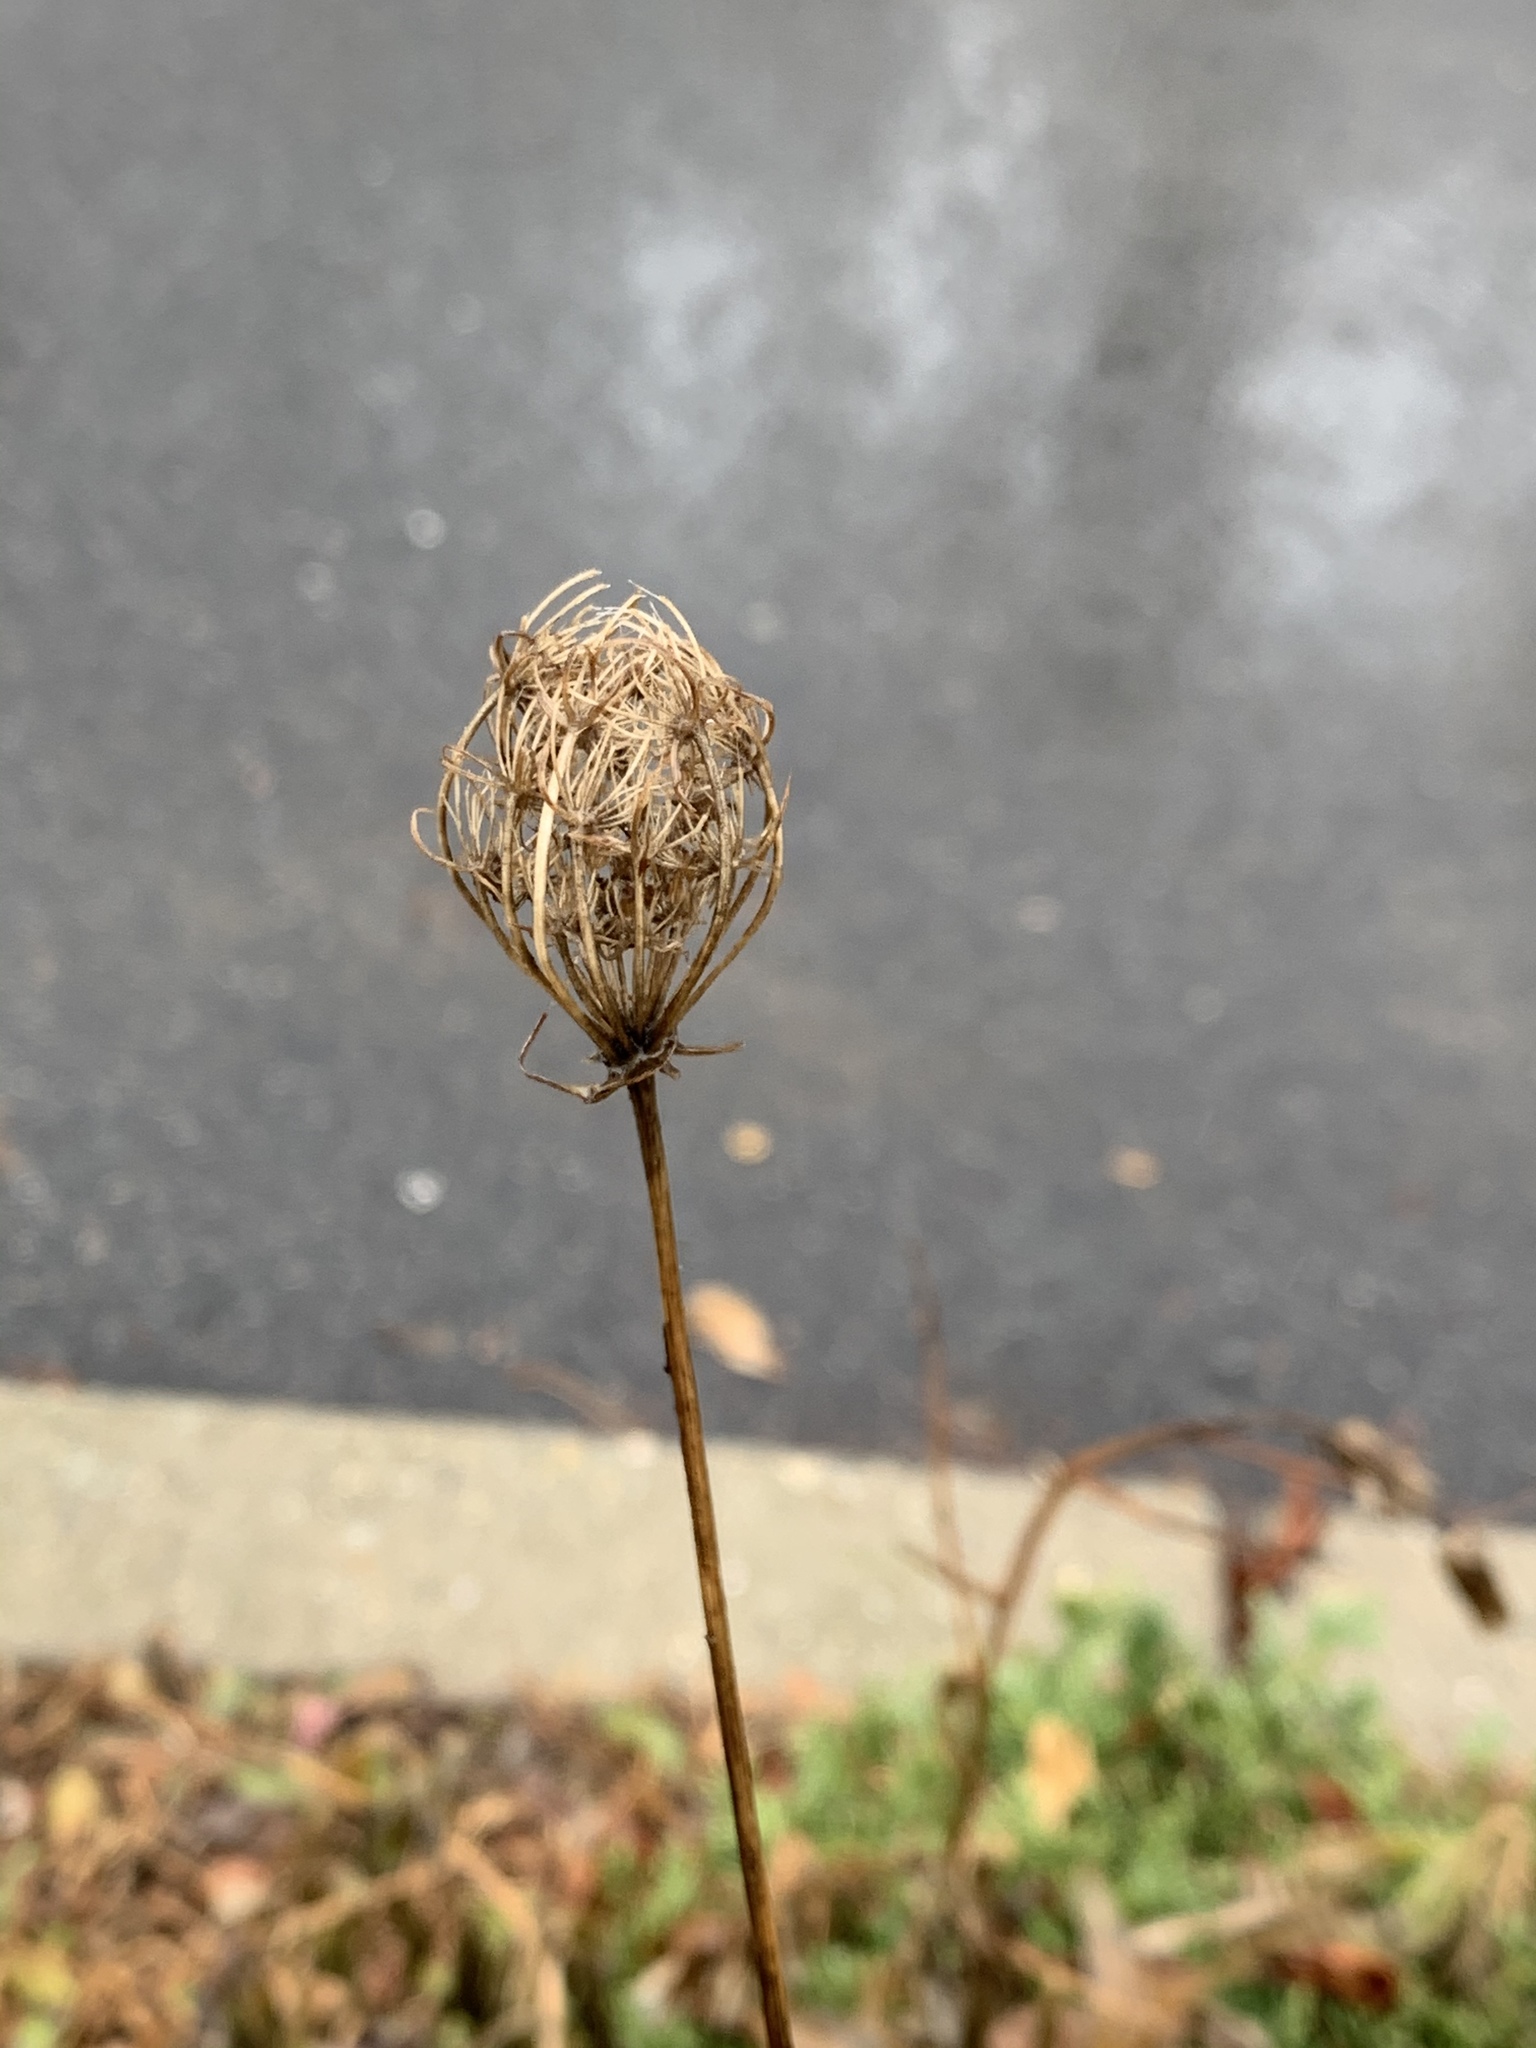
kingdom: Plantae
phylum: Tracheophyta
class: Magnoliopsida
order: Apiales
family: Apiaceae
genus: Daucus
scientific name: Daucus carota
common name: Wild carrot
